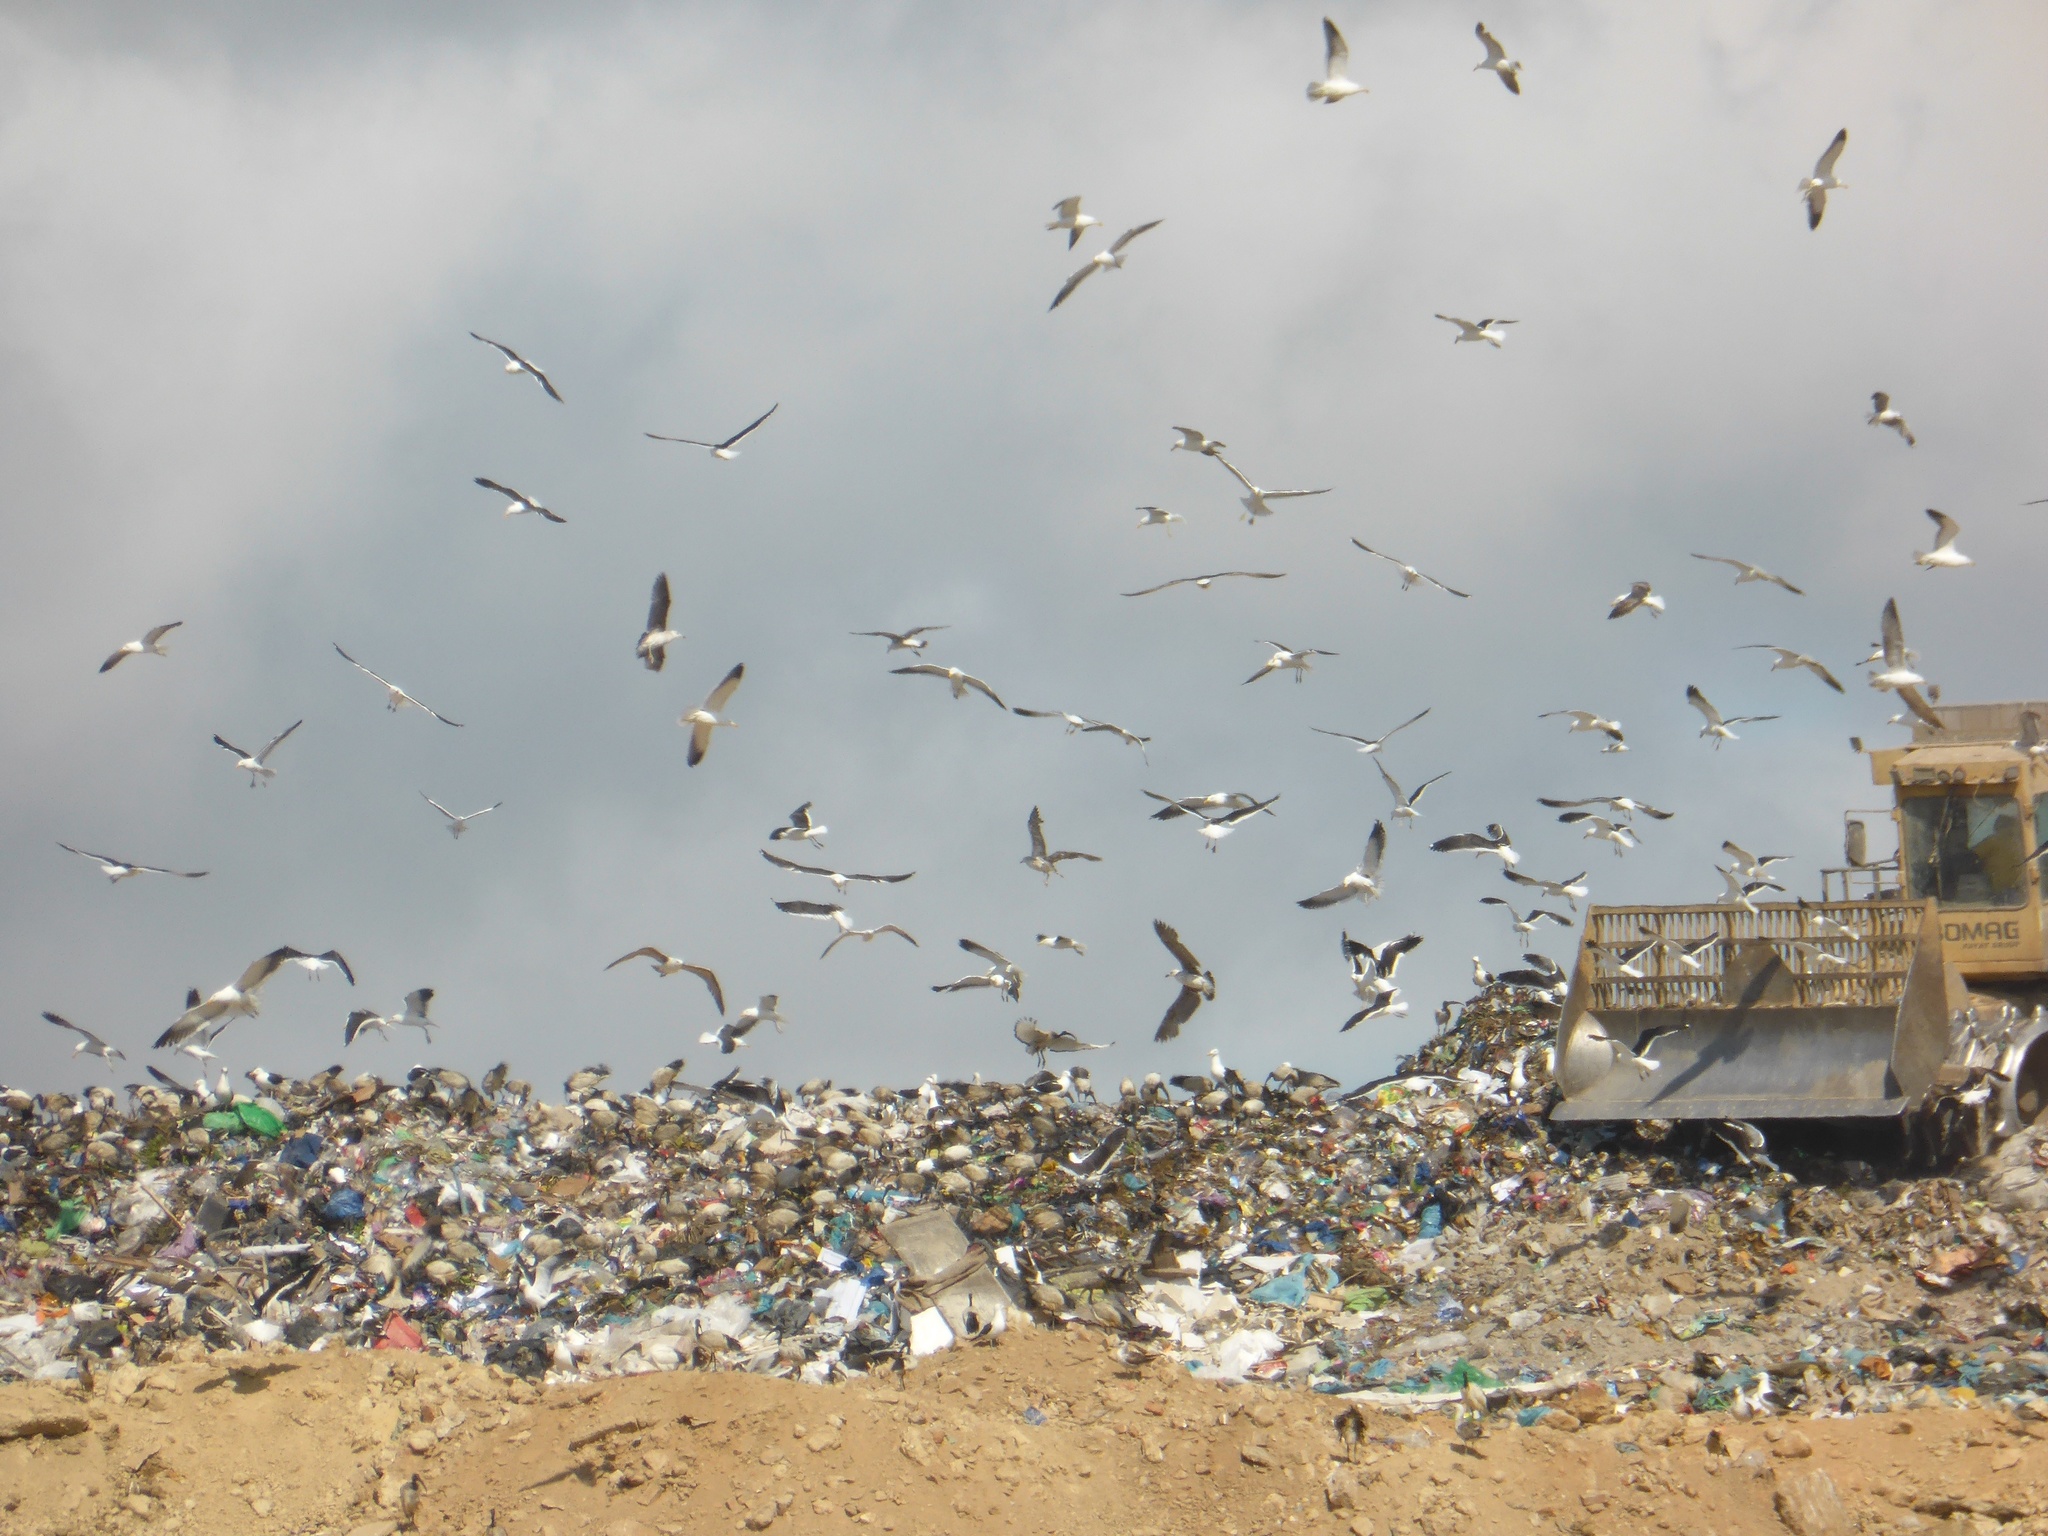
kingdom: Animalia
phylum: Chordata
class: Aves
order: Charadriiformes
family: Laridae
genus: Larus
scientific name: Larus dominicanus
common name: Kelp gull
